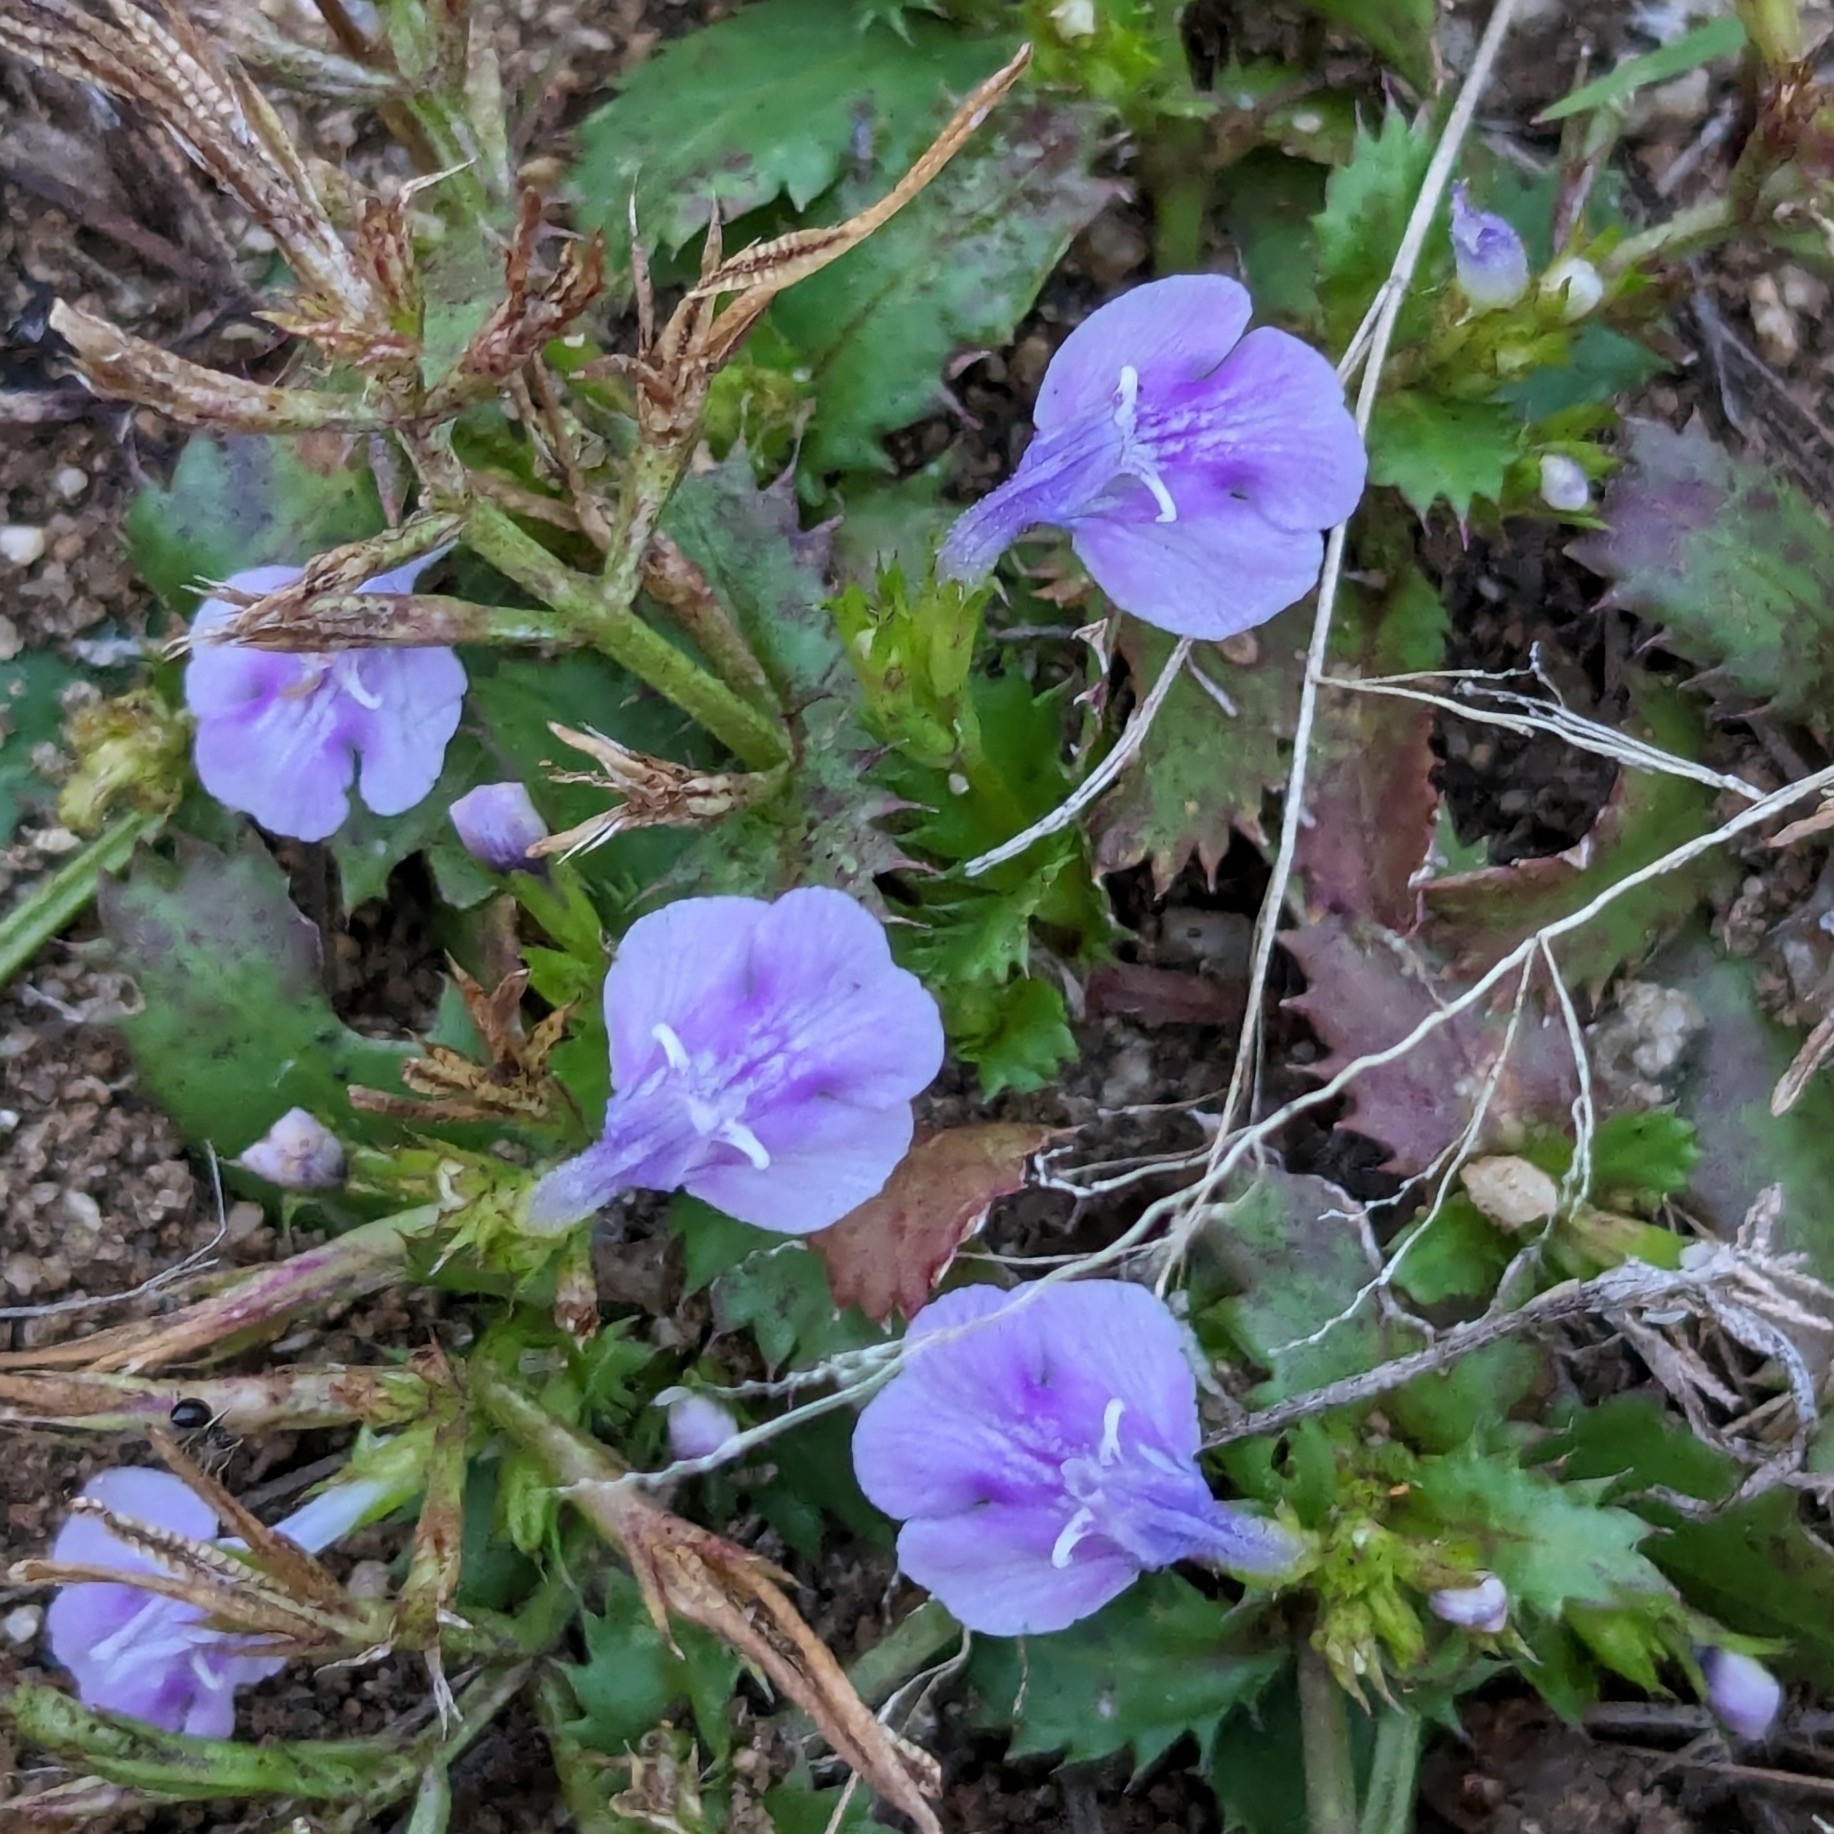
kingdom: Plantae
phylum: Tracheophyta
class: Magnoliopsida
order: Lamiales
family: Linderniaceae
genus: Bonnaya
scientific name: Bonnaya ciliata
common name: Hairy slitwort
